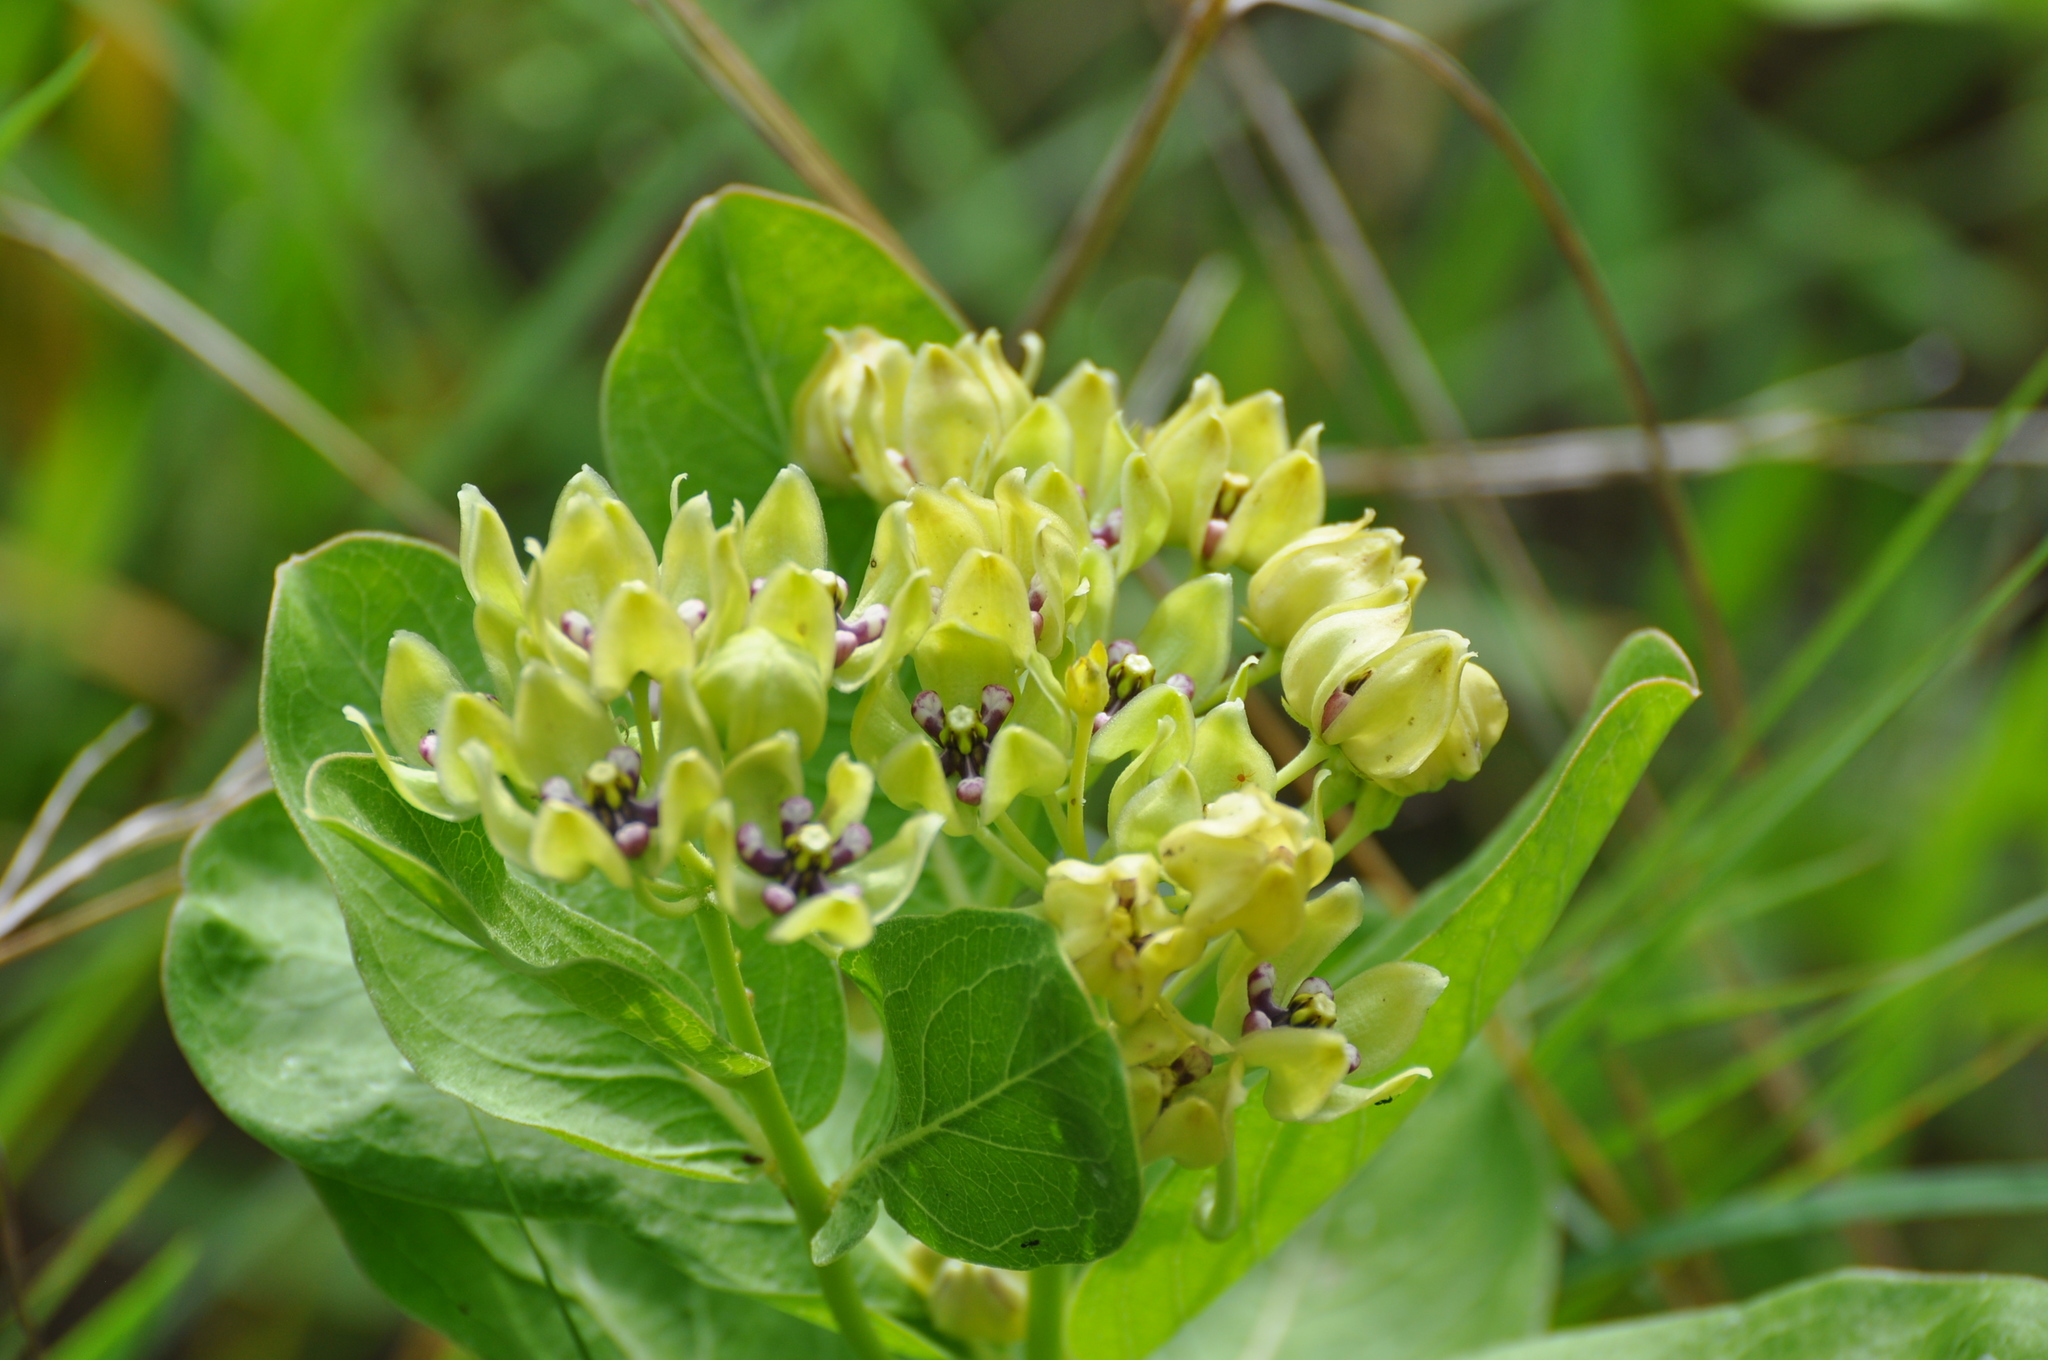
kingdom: Plantae
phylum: Tracheophyta
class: Magnoliopsida
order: Gentianales
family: Apocynaceae
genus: Asclepias
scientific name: Asclepias viridis
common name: Antelope-horns
